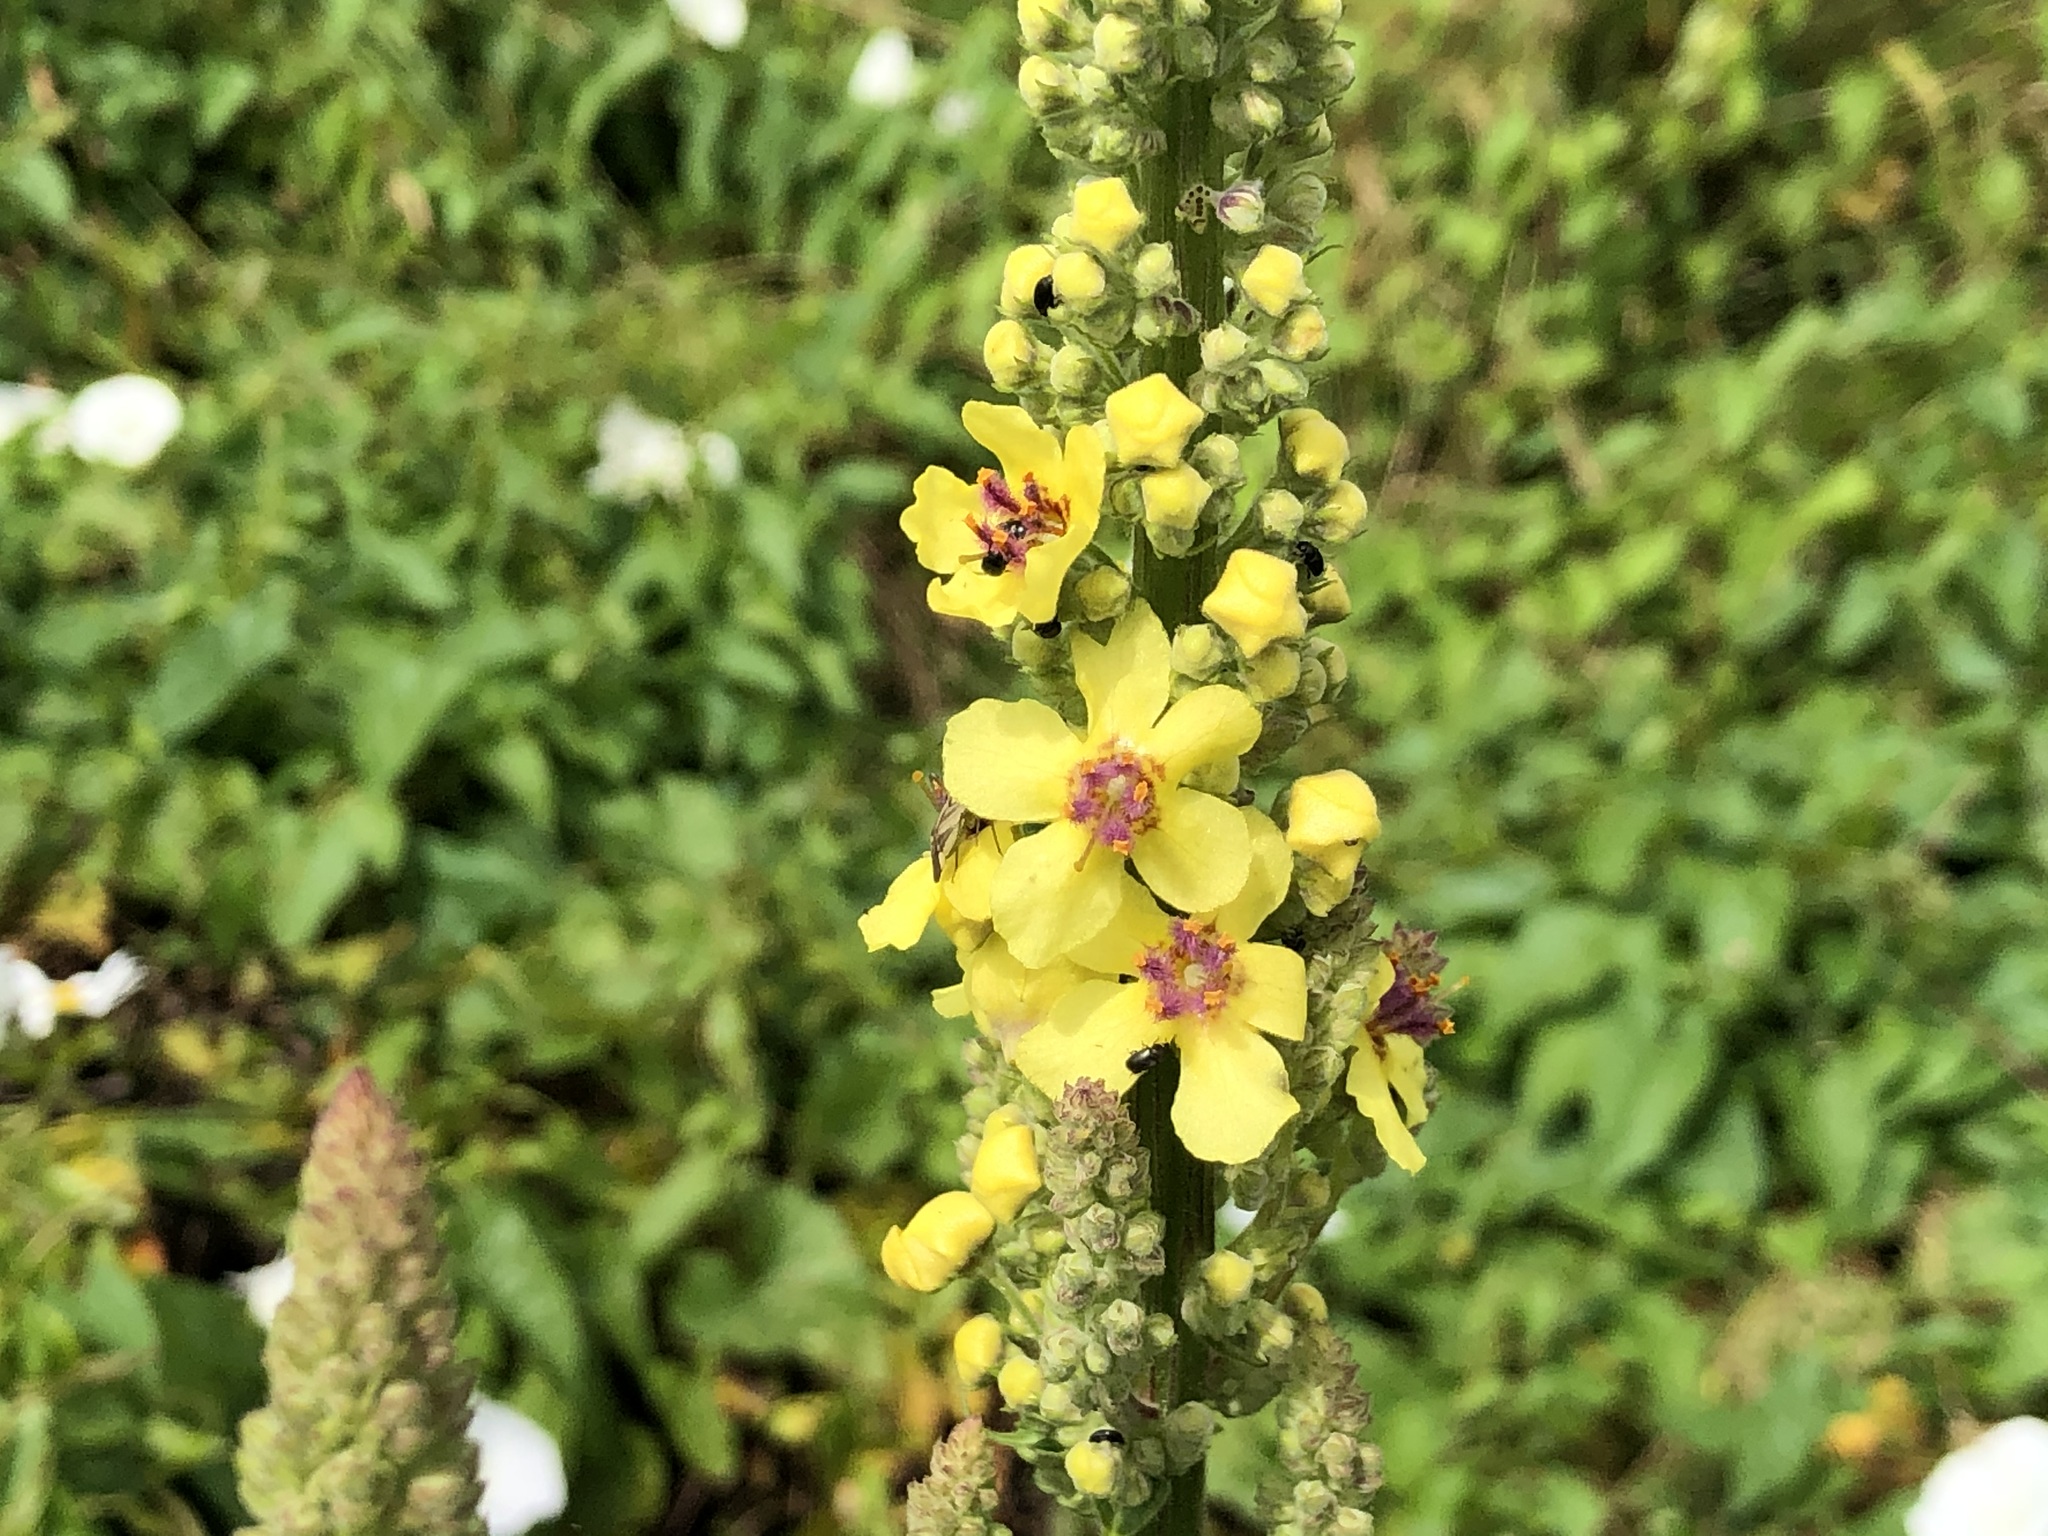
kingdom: Plantae
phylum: Tracheophyta
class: Magnoliopsida
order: Lamiales
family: Scrophulariaceae
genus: Verbascum
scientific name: Verbascum nigrum
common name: Dark mullein
